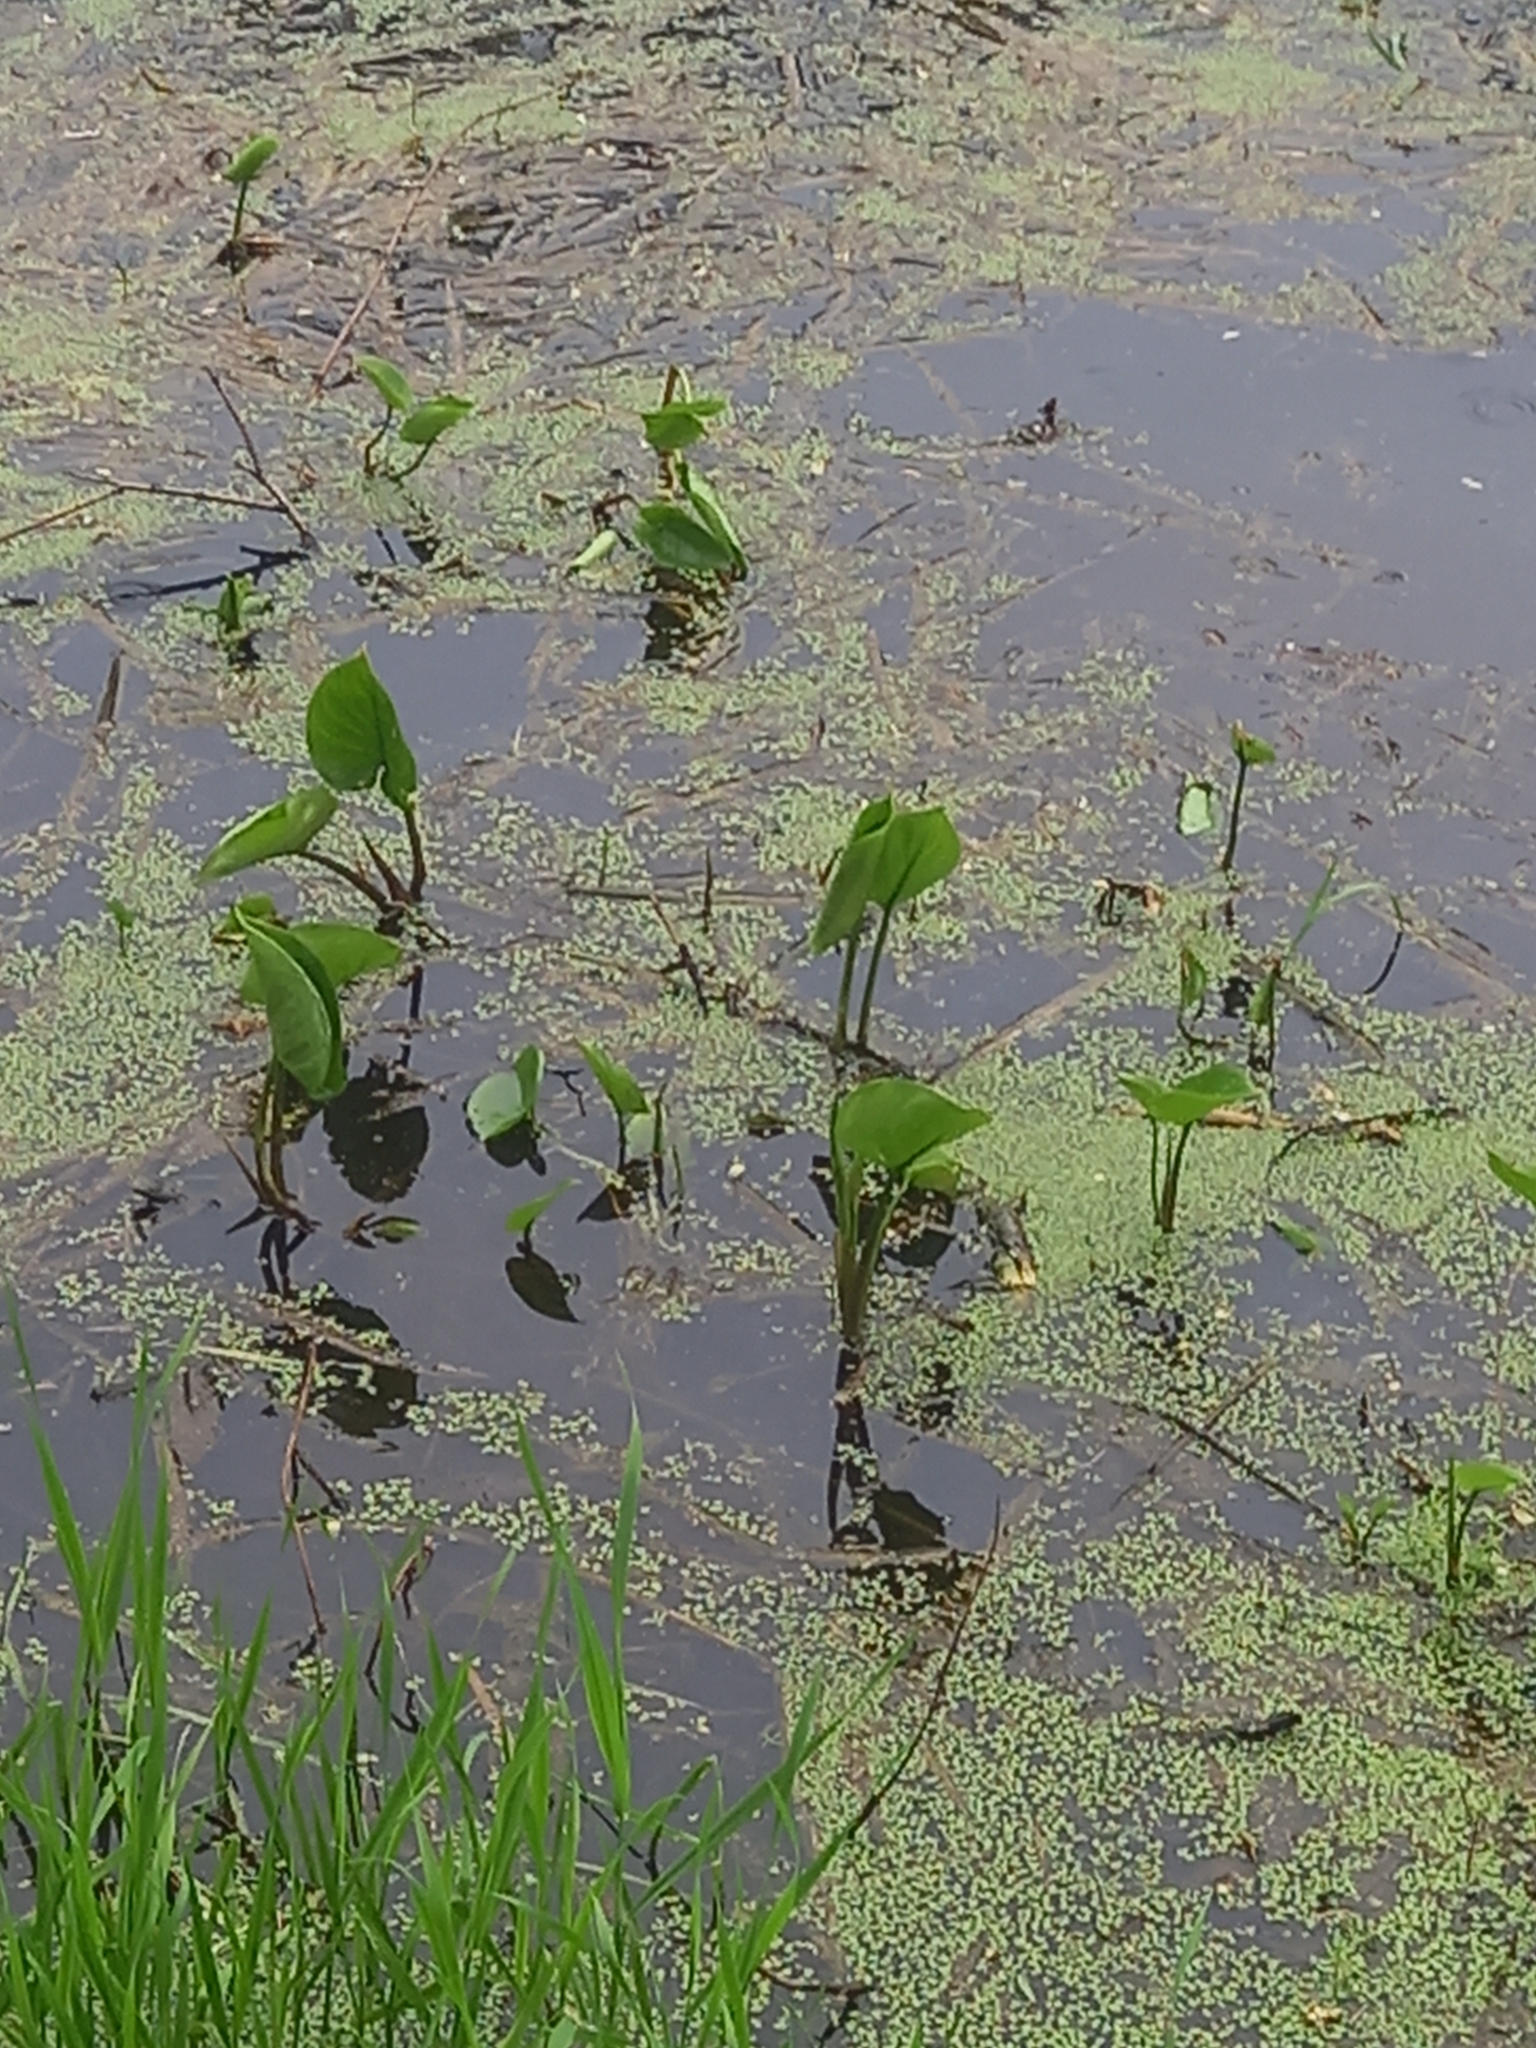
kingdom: Plantae
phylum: Tracheophyta
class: Liliopsida
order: Alismatales
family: Alismataceae
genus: Alisma
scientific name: Alisma plantago-aquatica
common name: Water-plantain
